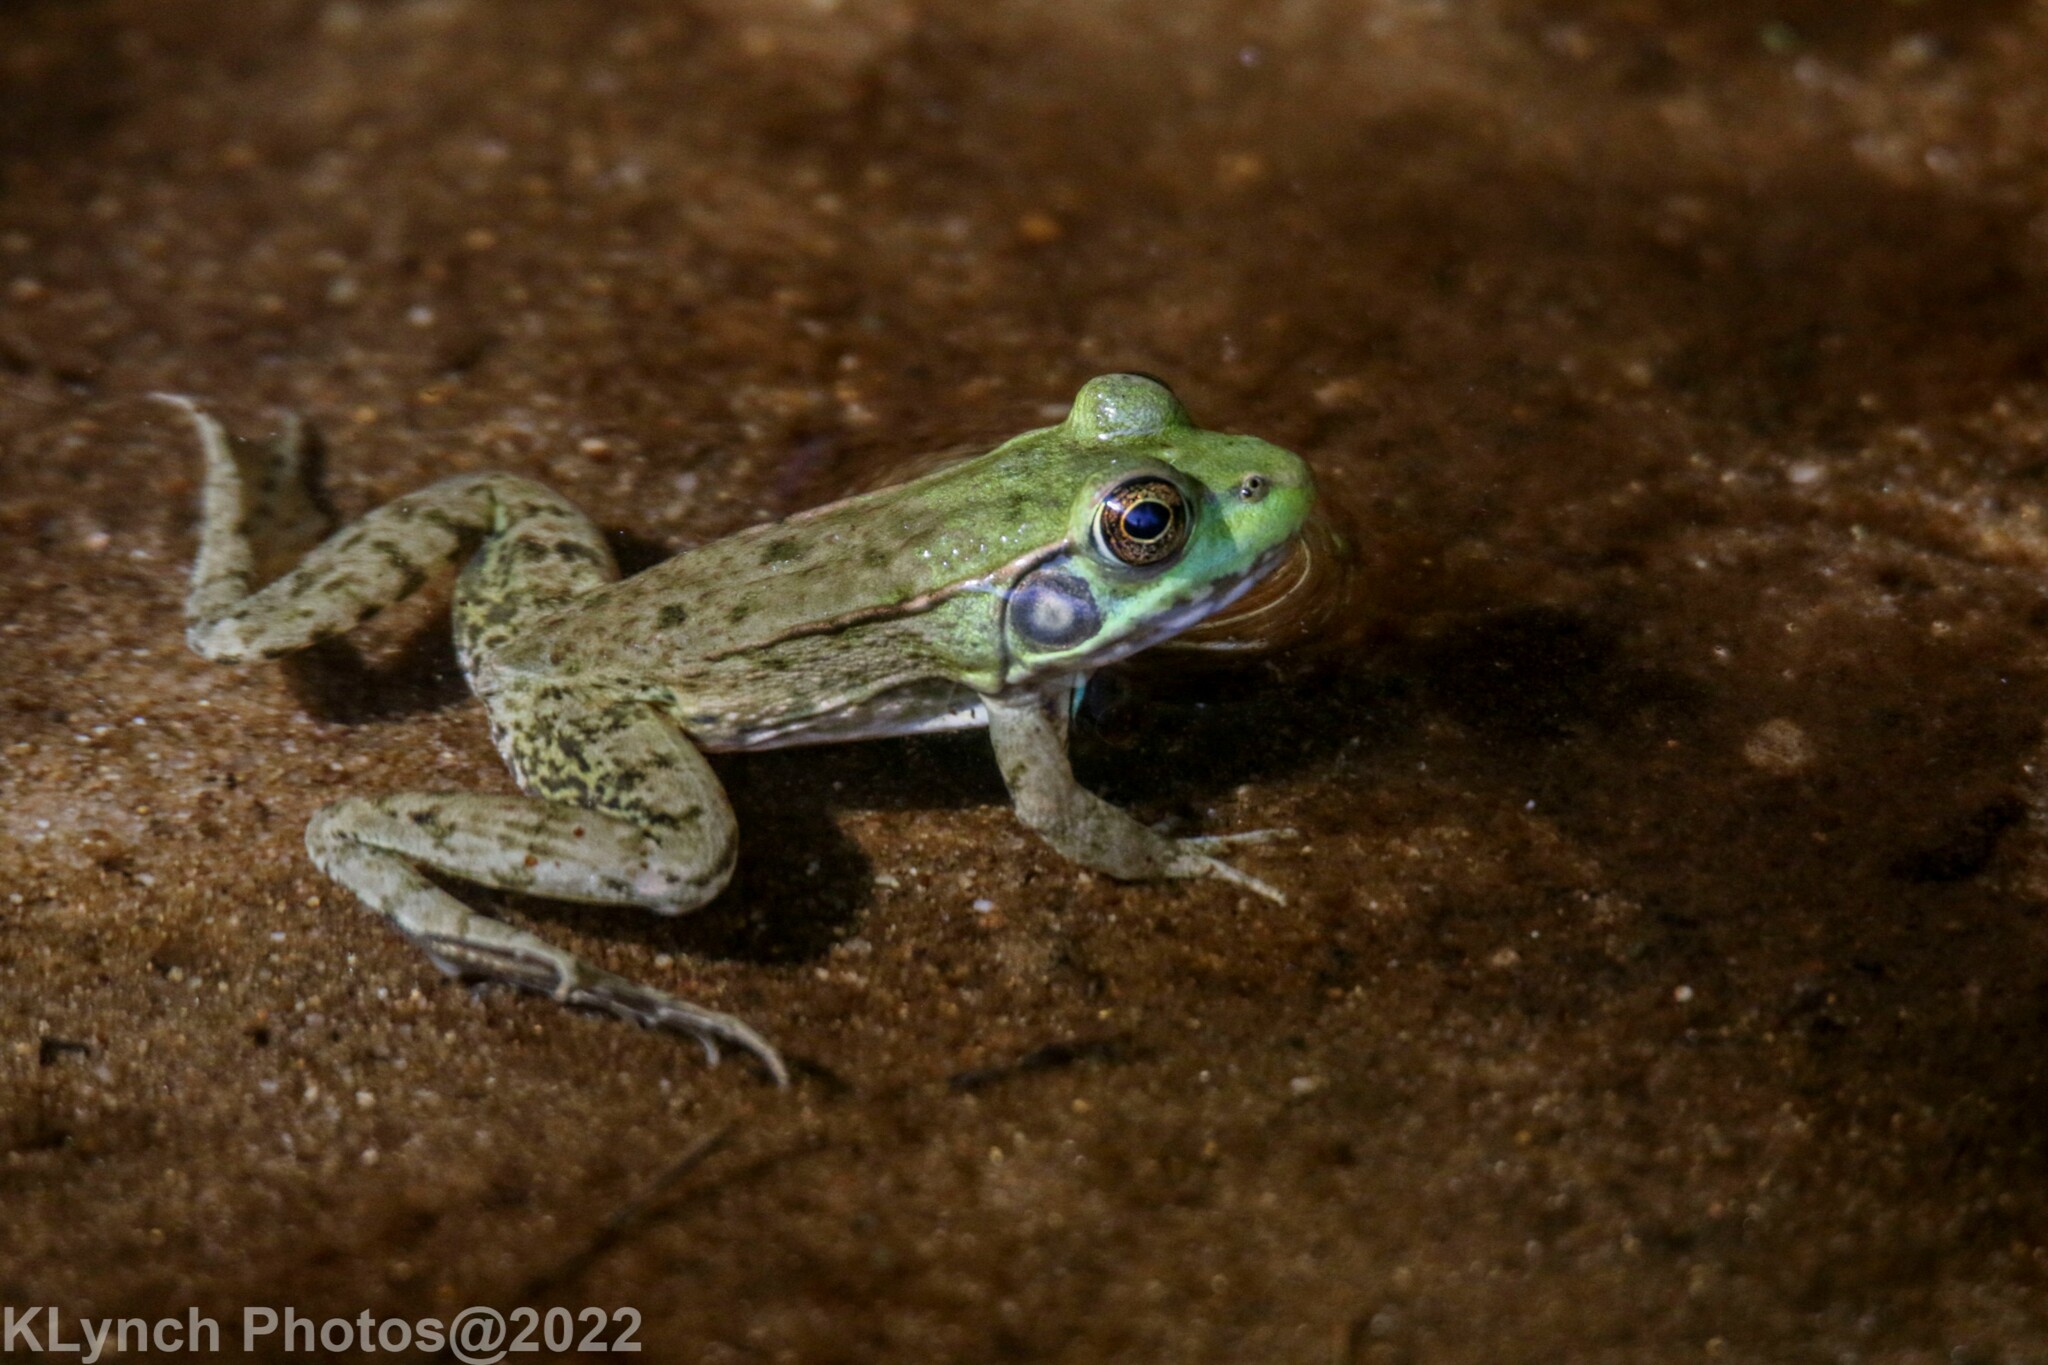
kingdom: Animalia
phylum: Chordata
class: Amphibia
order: Anura
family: Ranidae
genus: Lithobates
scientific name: Lithobates clamitans
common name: Green frog
